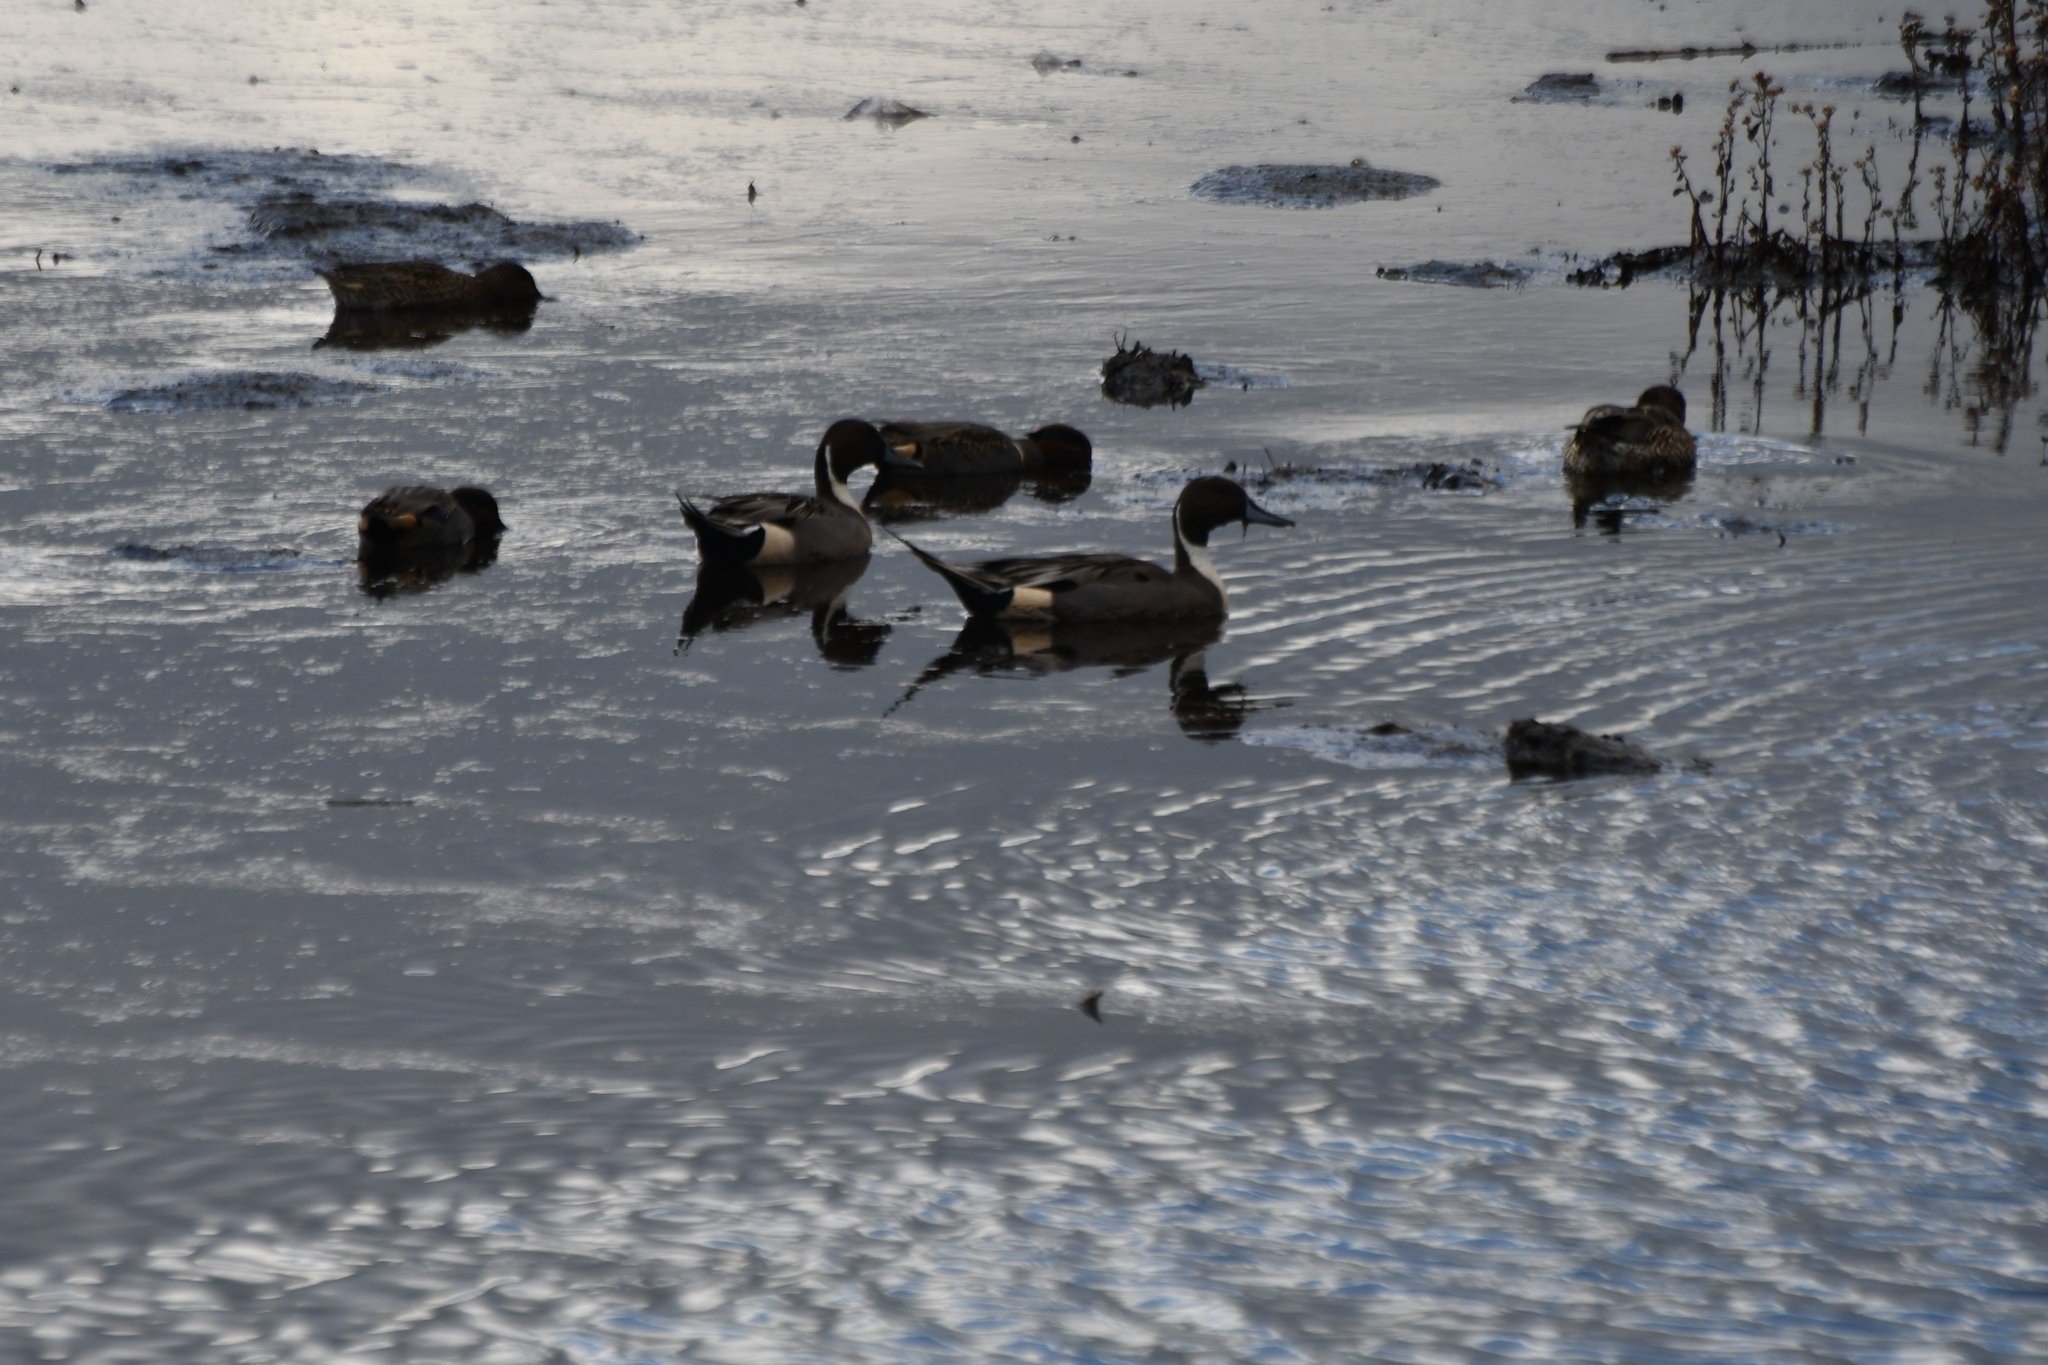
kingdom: Animalia
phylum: Chordata
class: Aves
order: Anseriformes
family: Anatidae
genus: Anas
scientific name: Anas acuta
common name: Northern pintail
